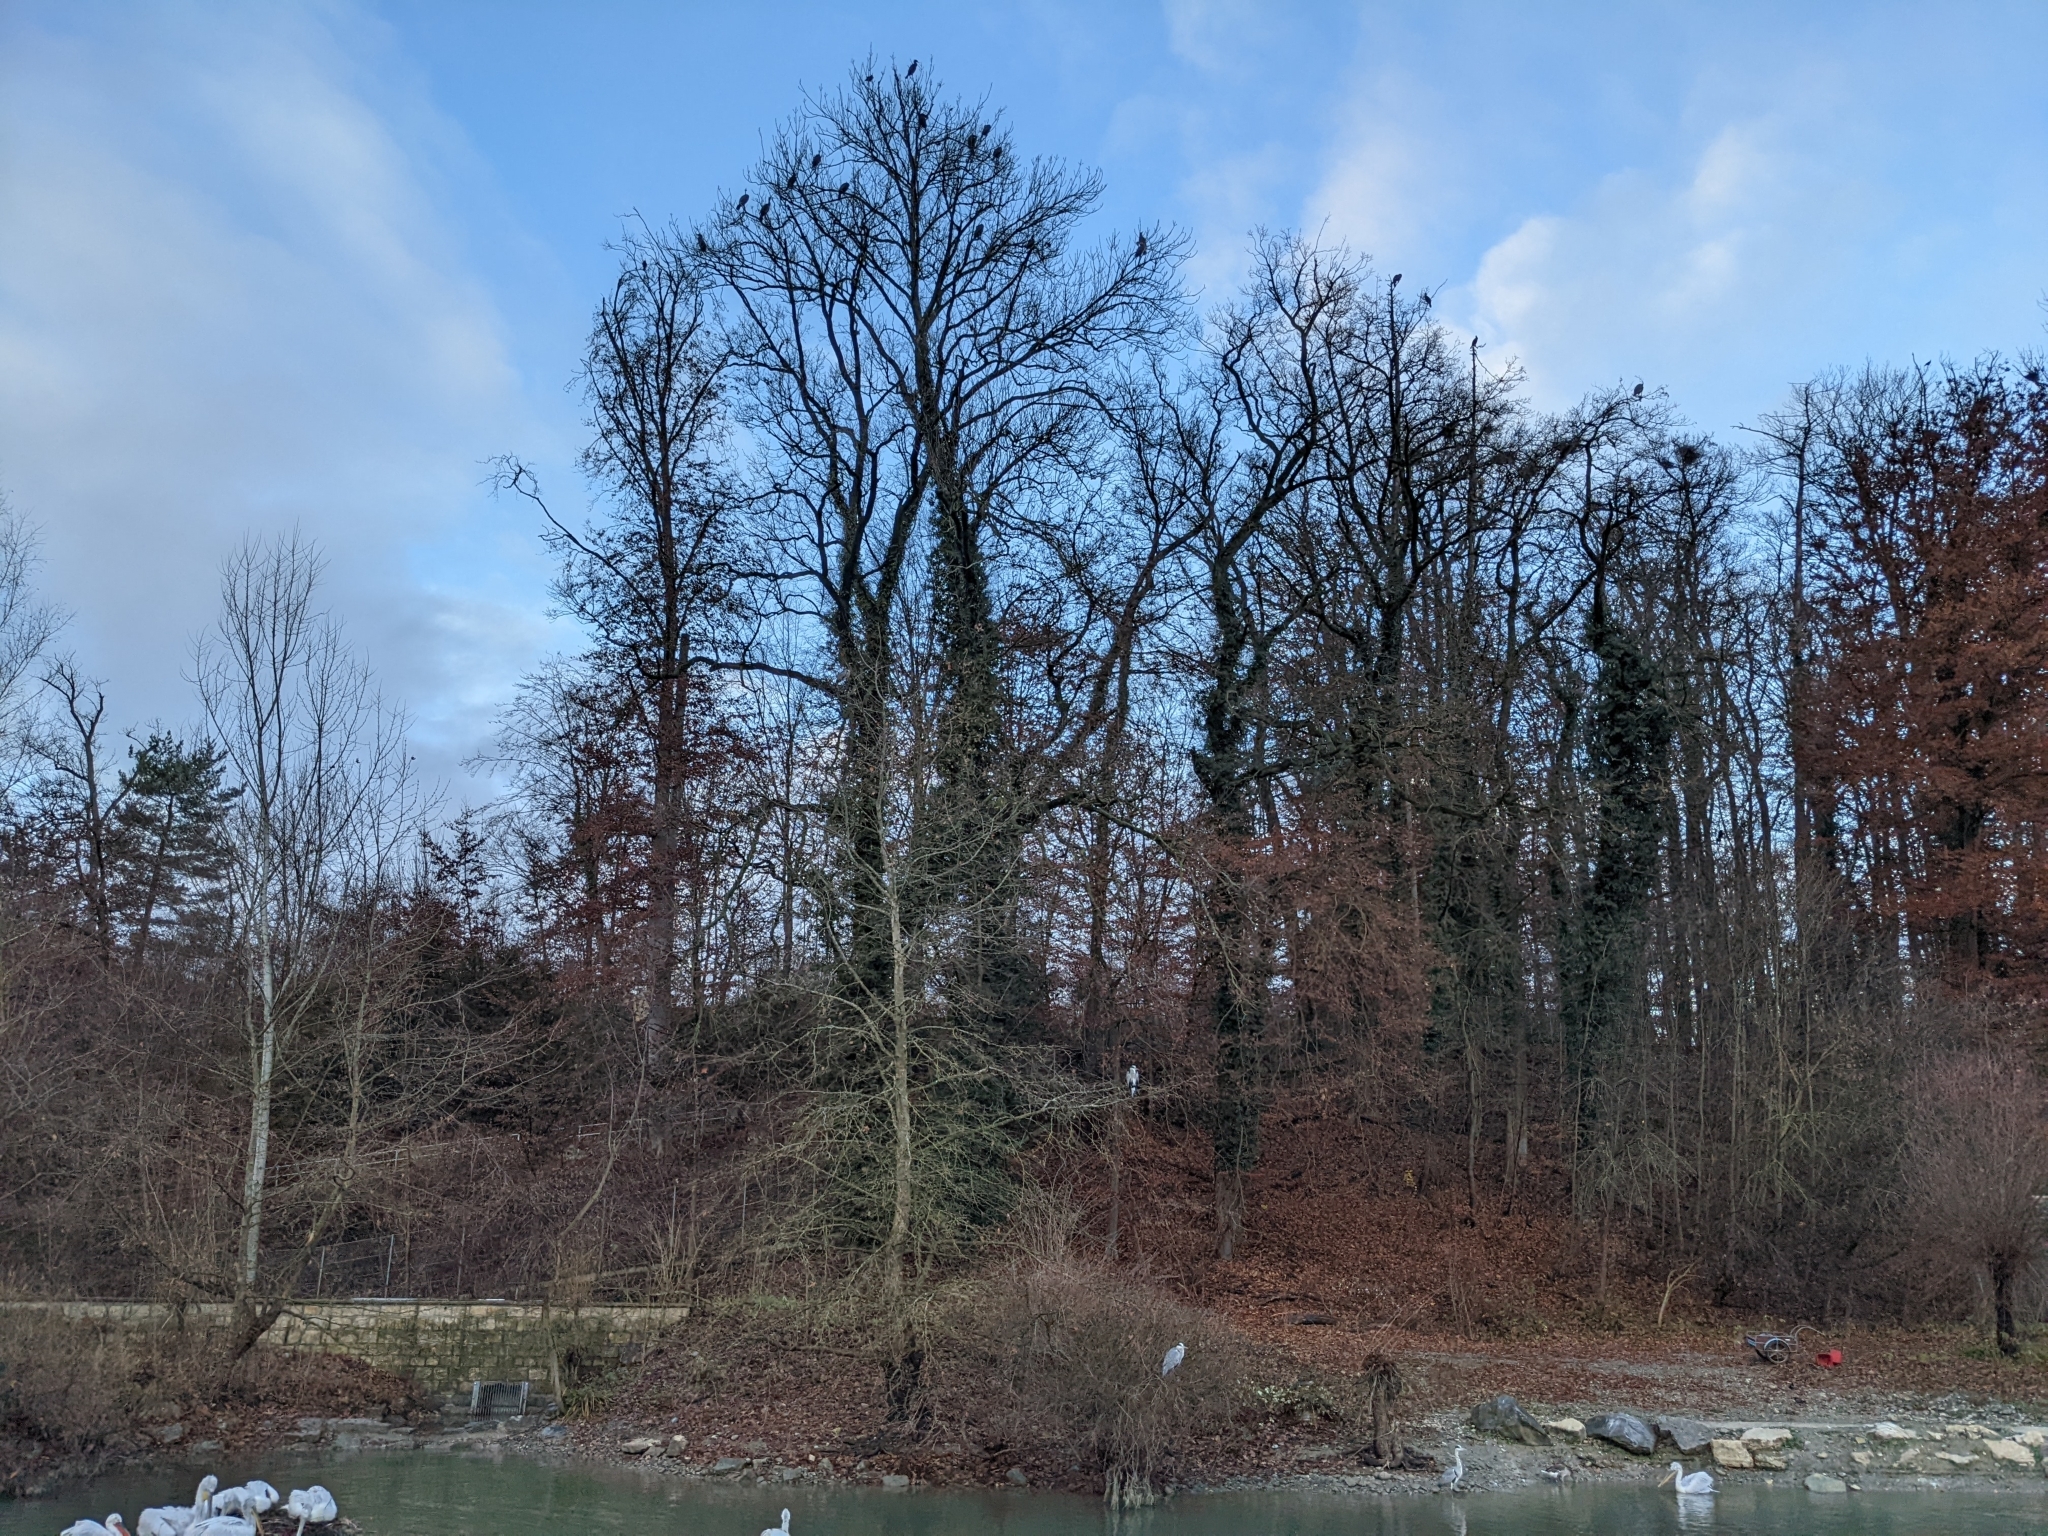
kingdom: Animalia
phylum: Chordata
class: Aves
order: Suliformes
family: Phalacrocoracidae
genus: Phalacrocorax
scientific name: Phalacrocorax carbo
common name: Great cormorant
